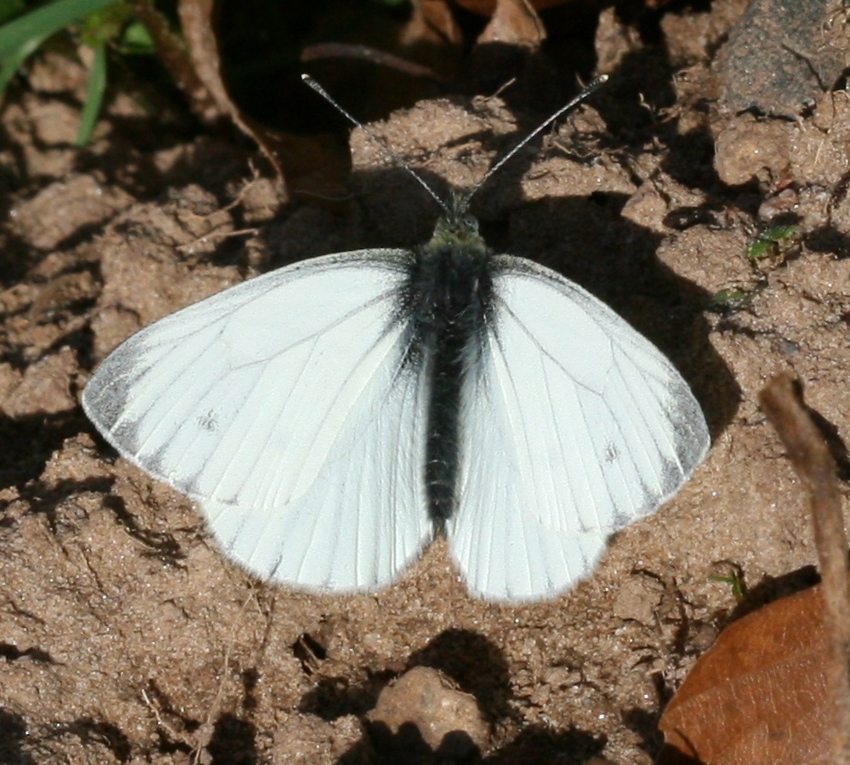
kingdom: Animalia
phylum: Arthropoda
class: Insecta
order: Lepidoptera
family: Pieridae
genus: Pieris
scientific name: Pieris napi
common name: Green-veined white
